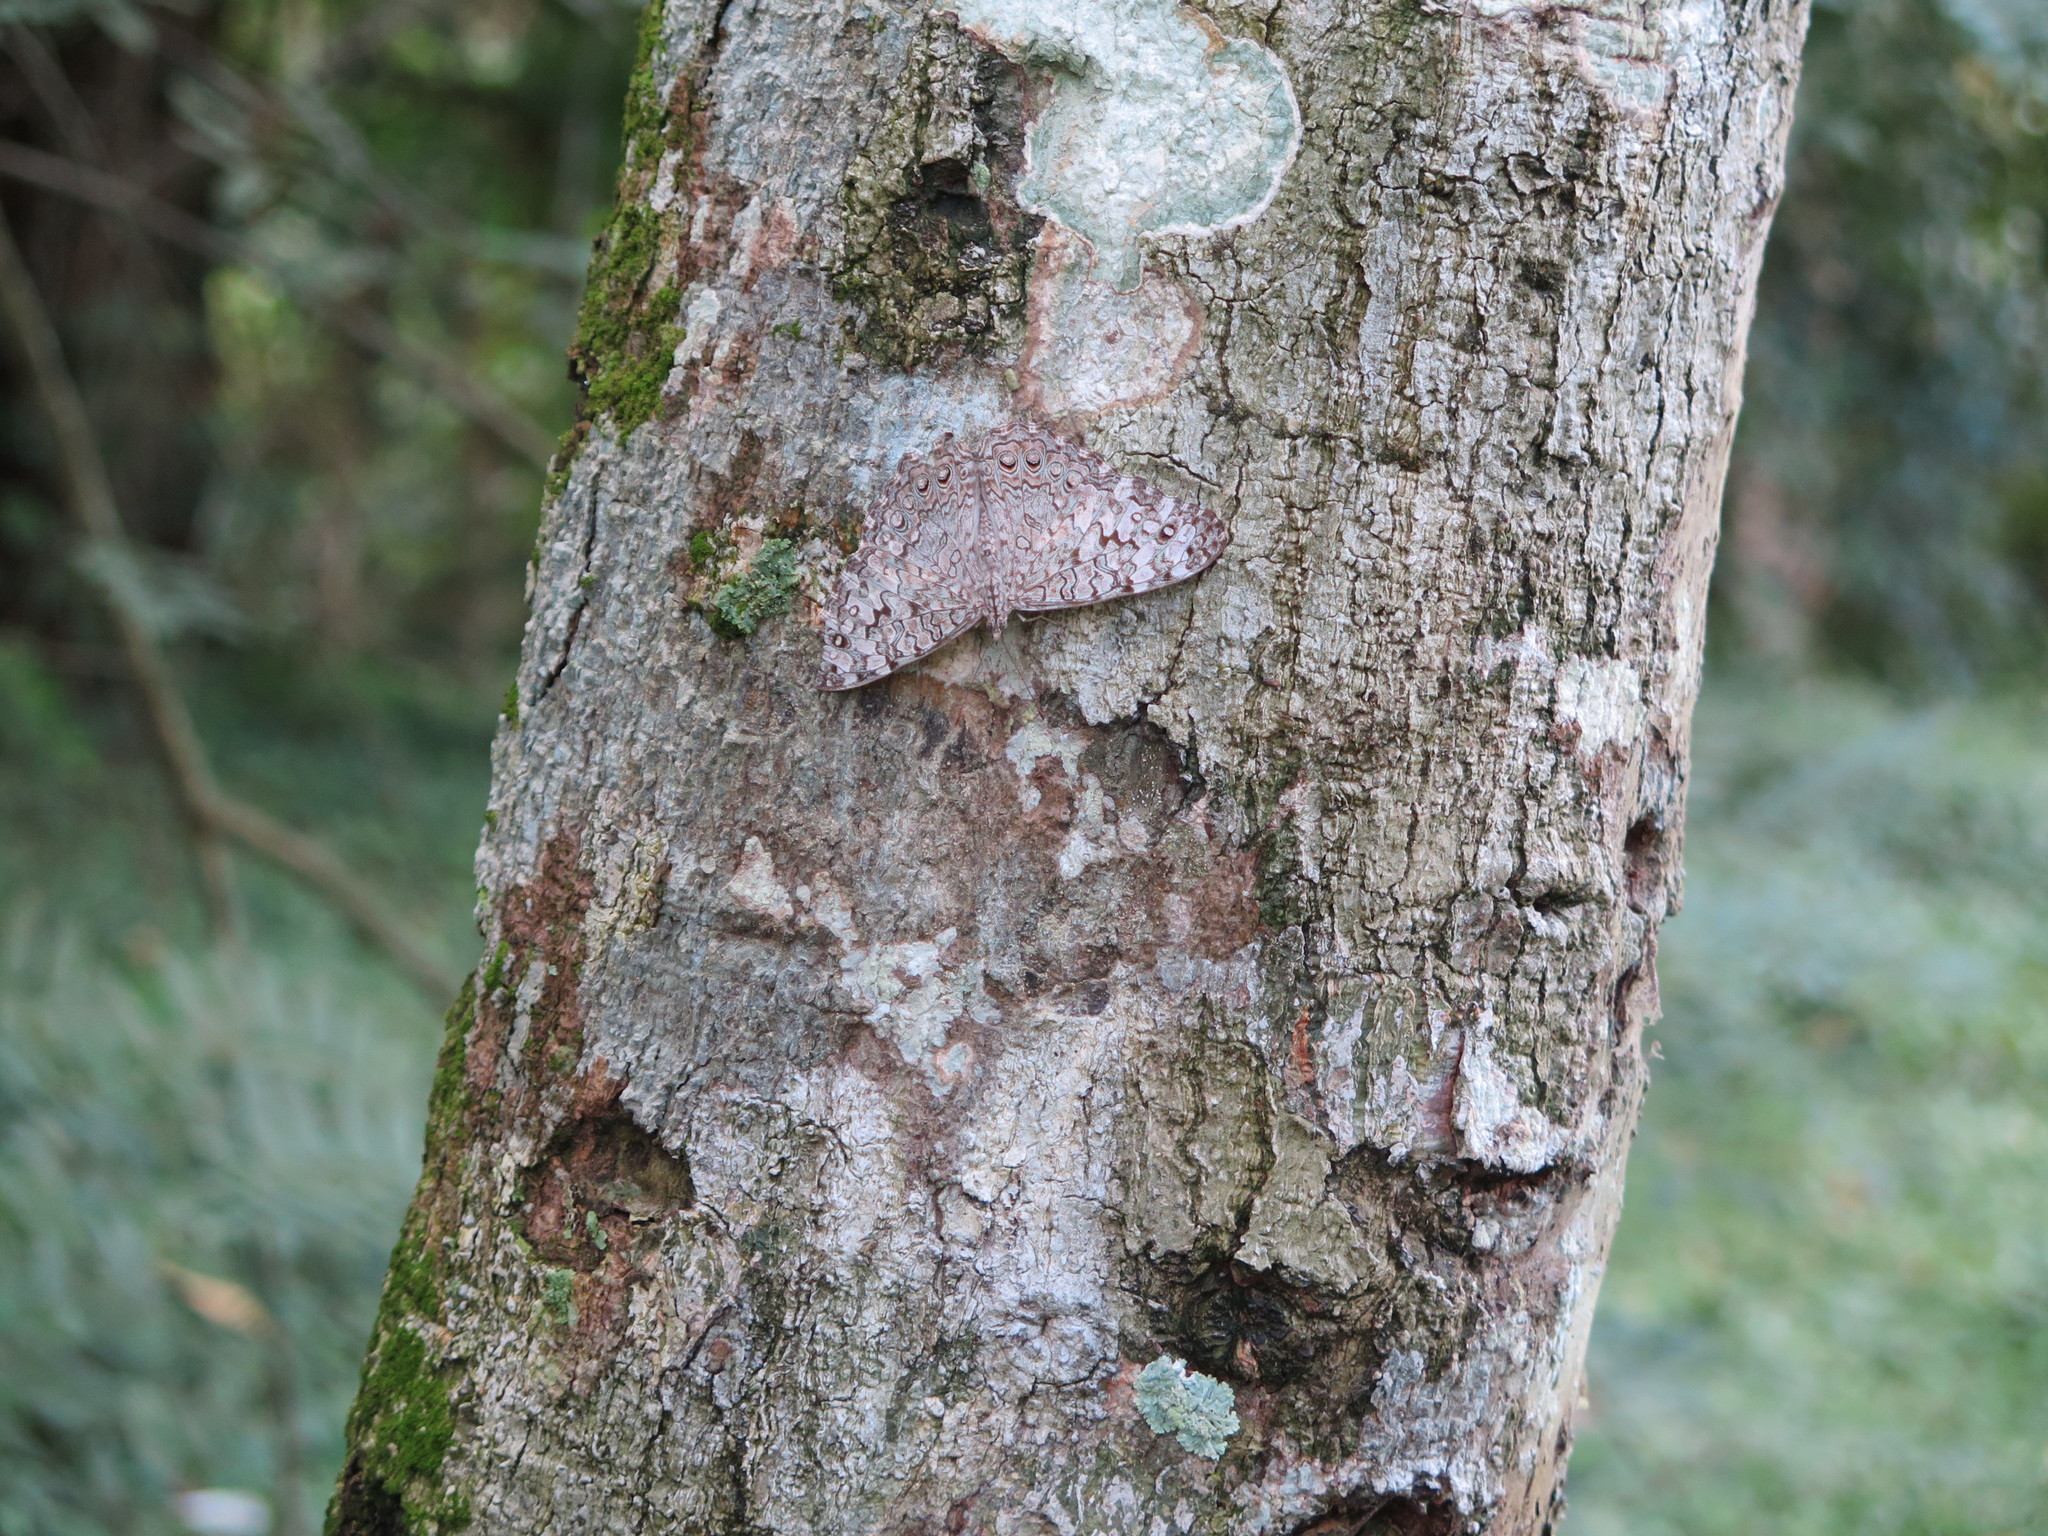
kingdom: Animalia
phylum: Arthropoda
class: Insecta
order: Lepidoptera
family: Nymphalidae
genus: Hamadryas
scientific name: Hamadryas februa
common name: Gray cracker
